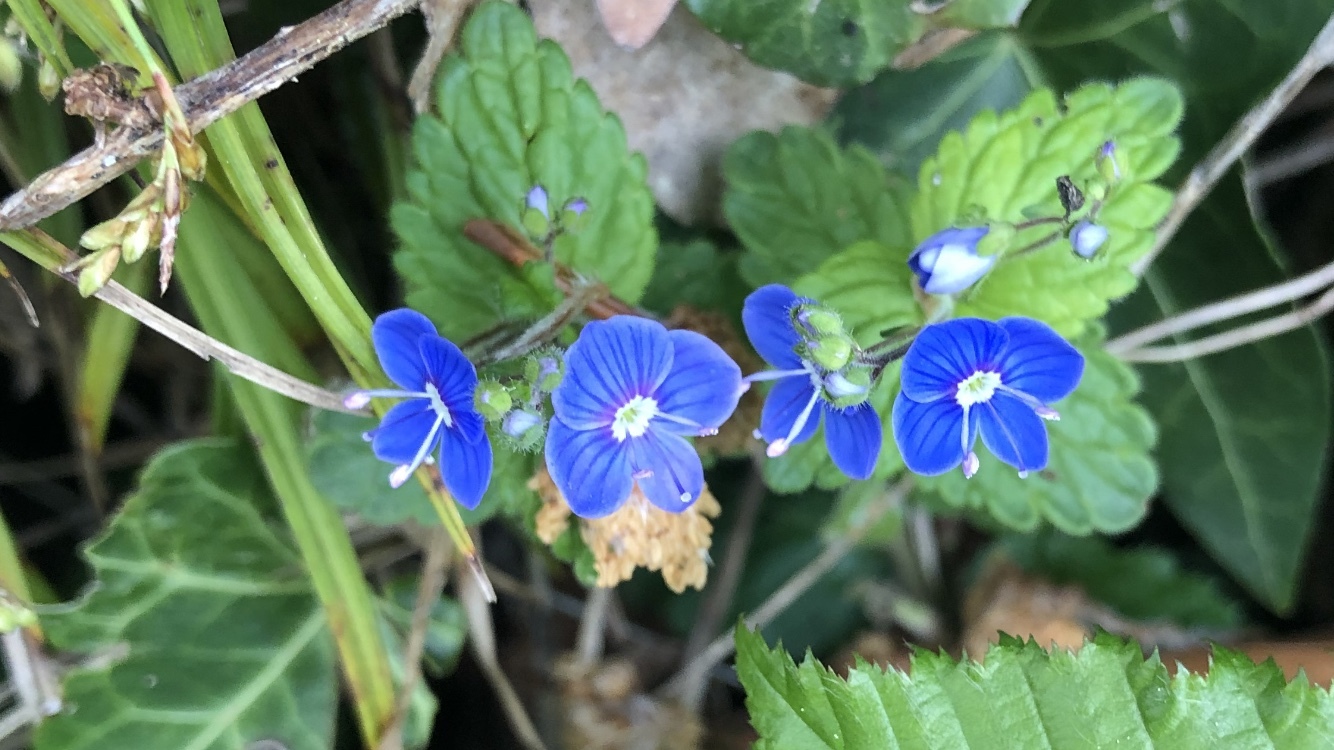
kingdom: Plantae
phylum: Tracheophyta
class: Magnoliopsida
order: Lamiales
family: Plantaginaceae
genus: Veronica
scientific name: Veronica chamaedrys
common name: Germander speedwell
